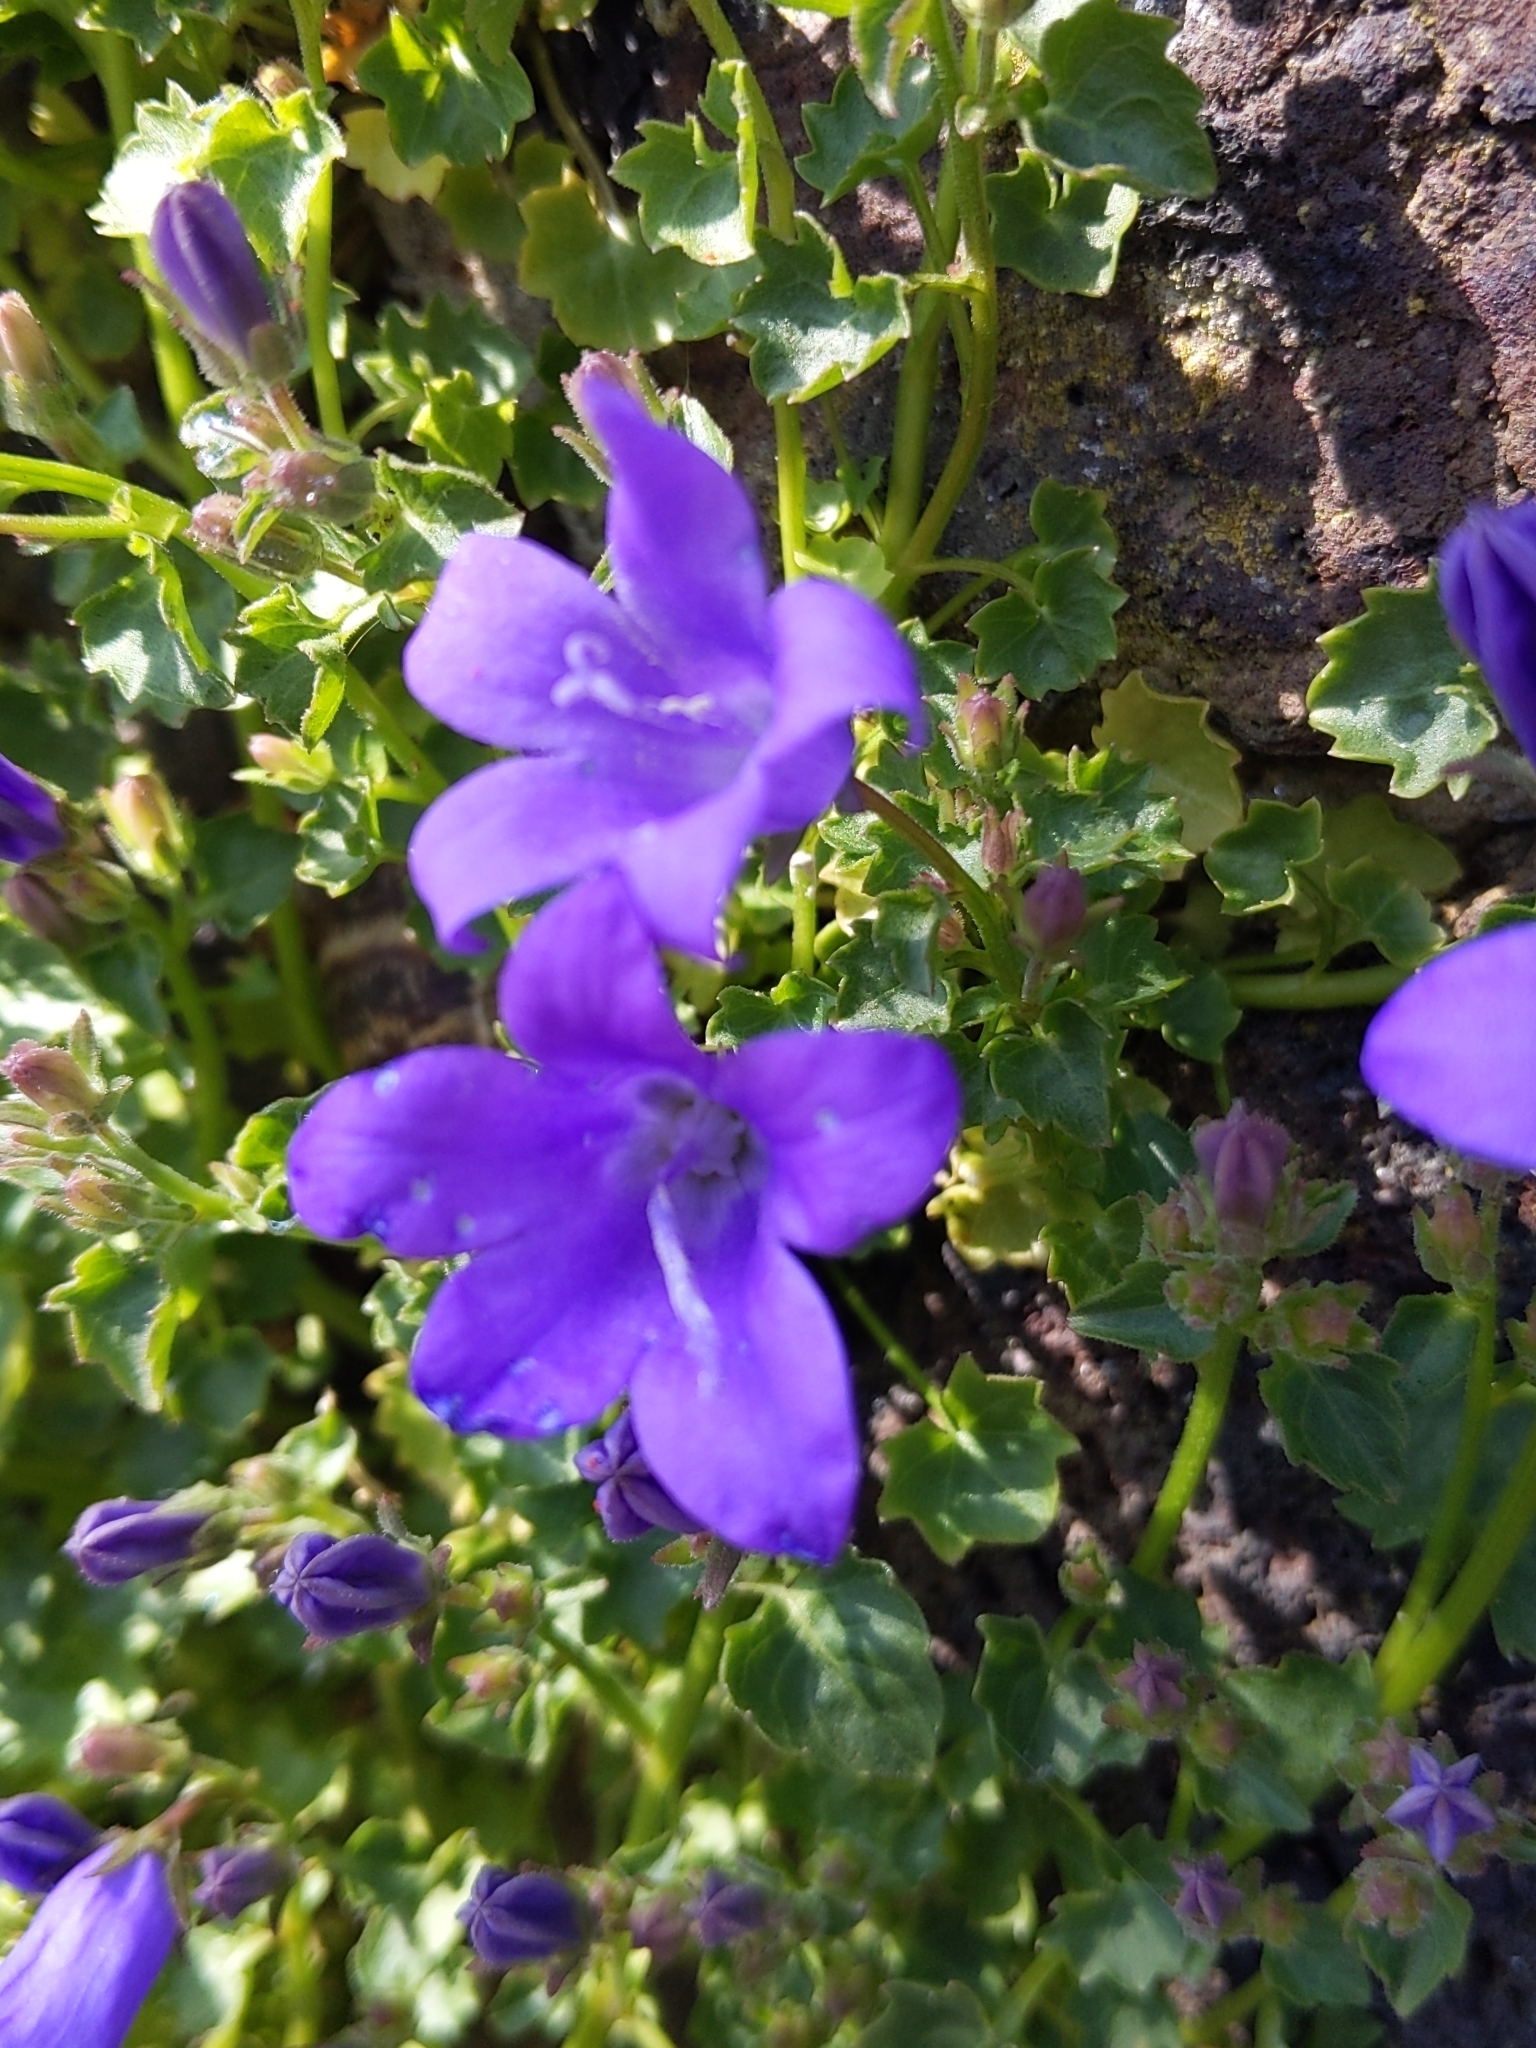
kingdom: Plantae
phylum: Tracheophyta
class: Magnoliopsida
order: Asterales
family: Campanulaceae
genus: Campanula
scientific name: Campanula portenschlagiana
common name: Adria bellflower
